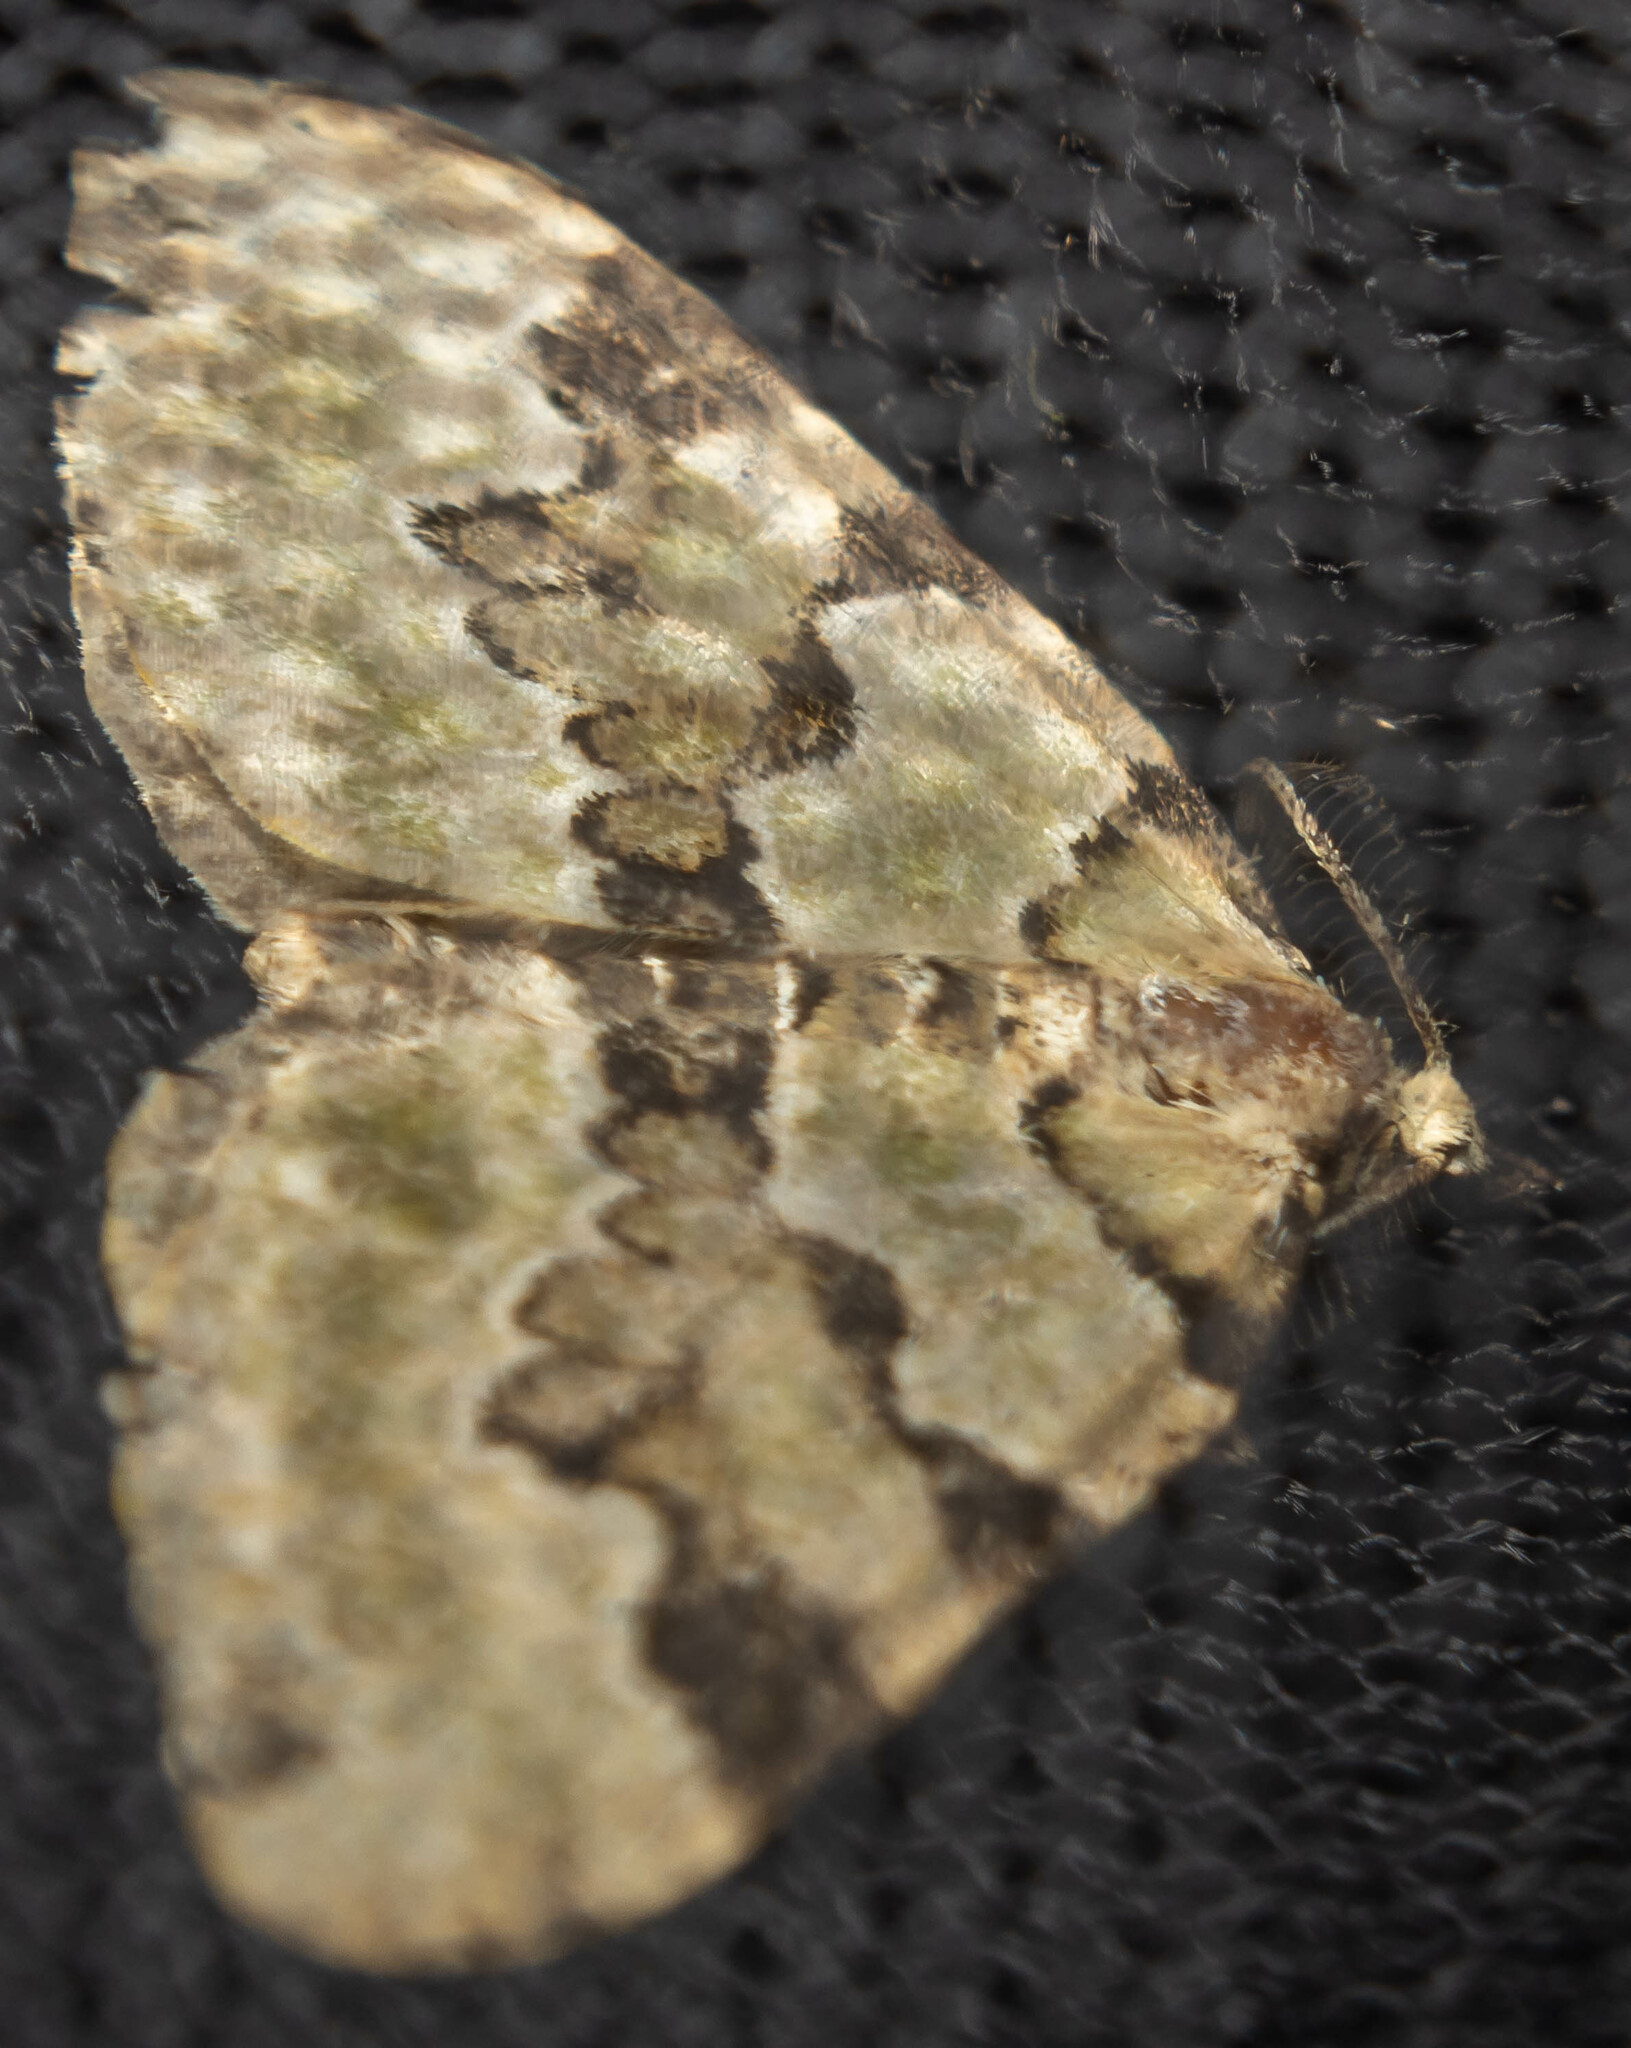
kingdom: Animalia
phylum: Arthropoda
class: Insecta
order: Lepidoptera
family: Geometridae
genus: Colostygia
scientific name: Colostygia pectinataria
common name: Green carpet
